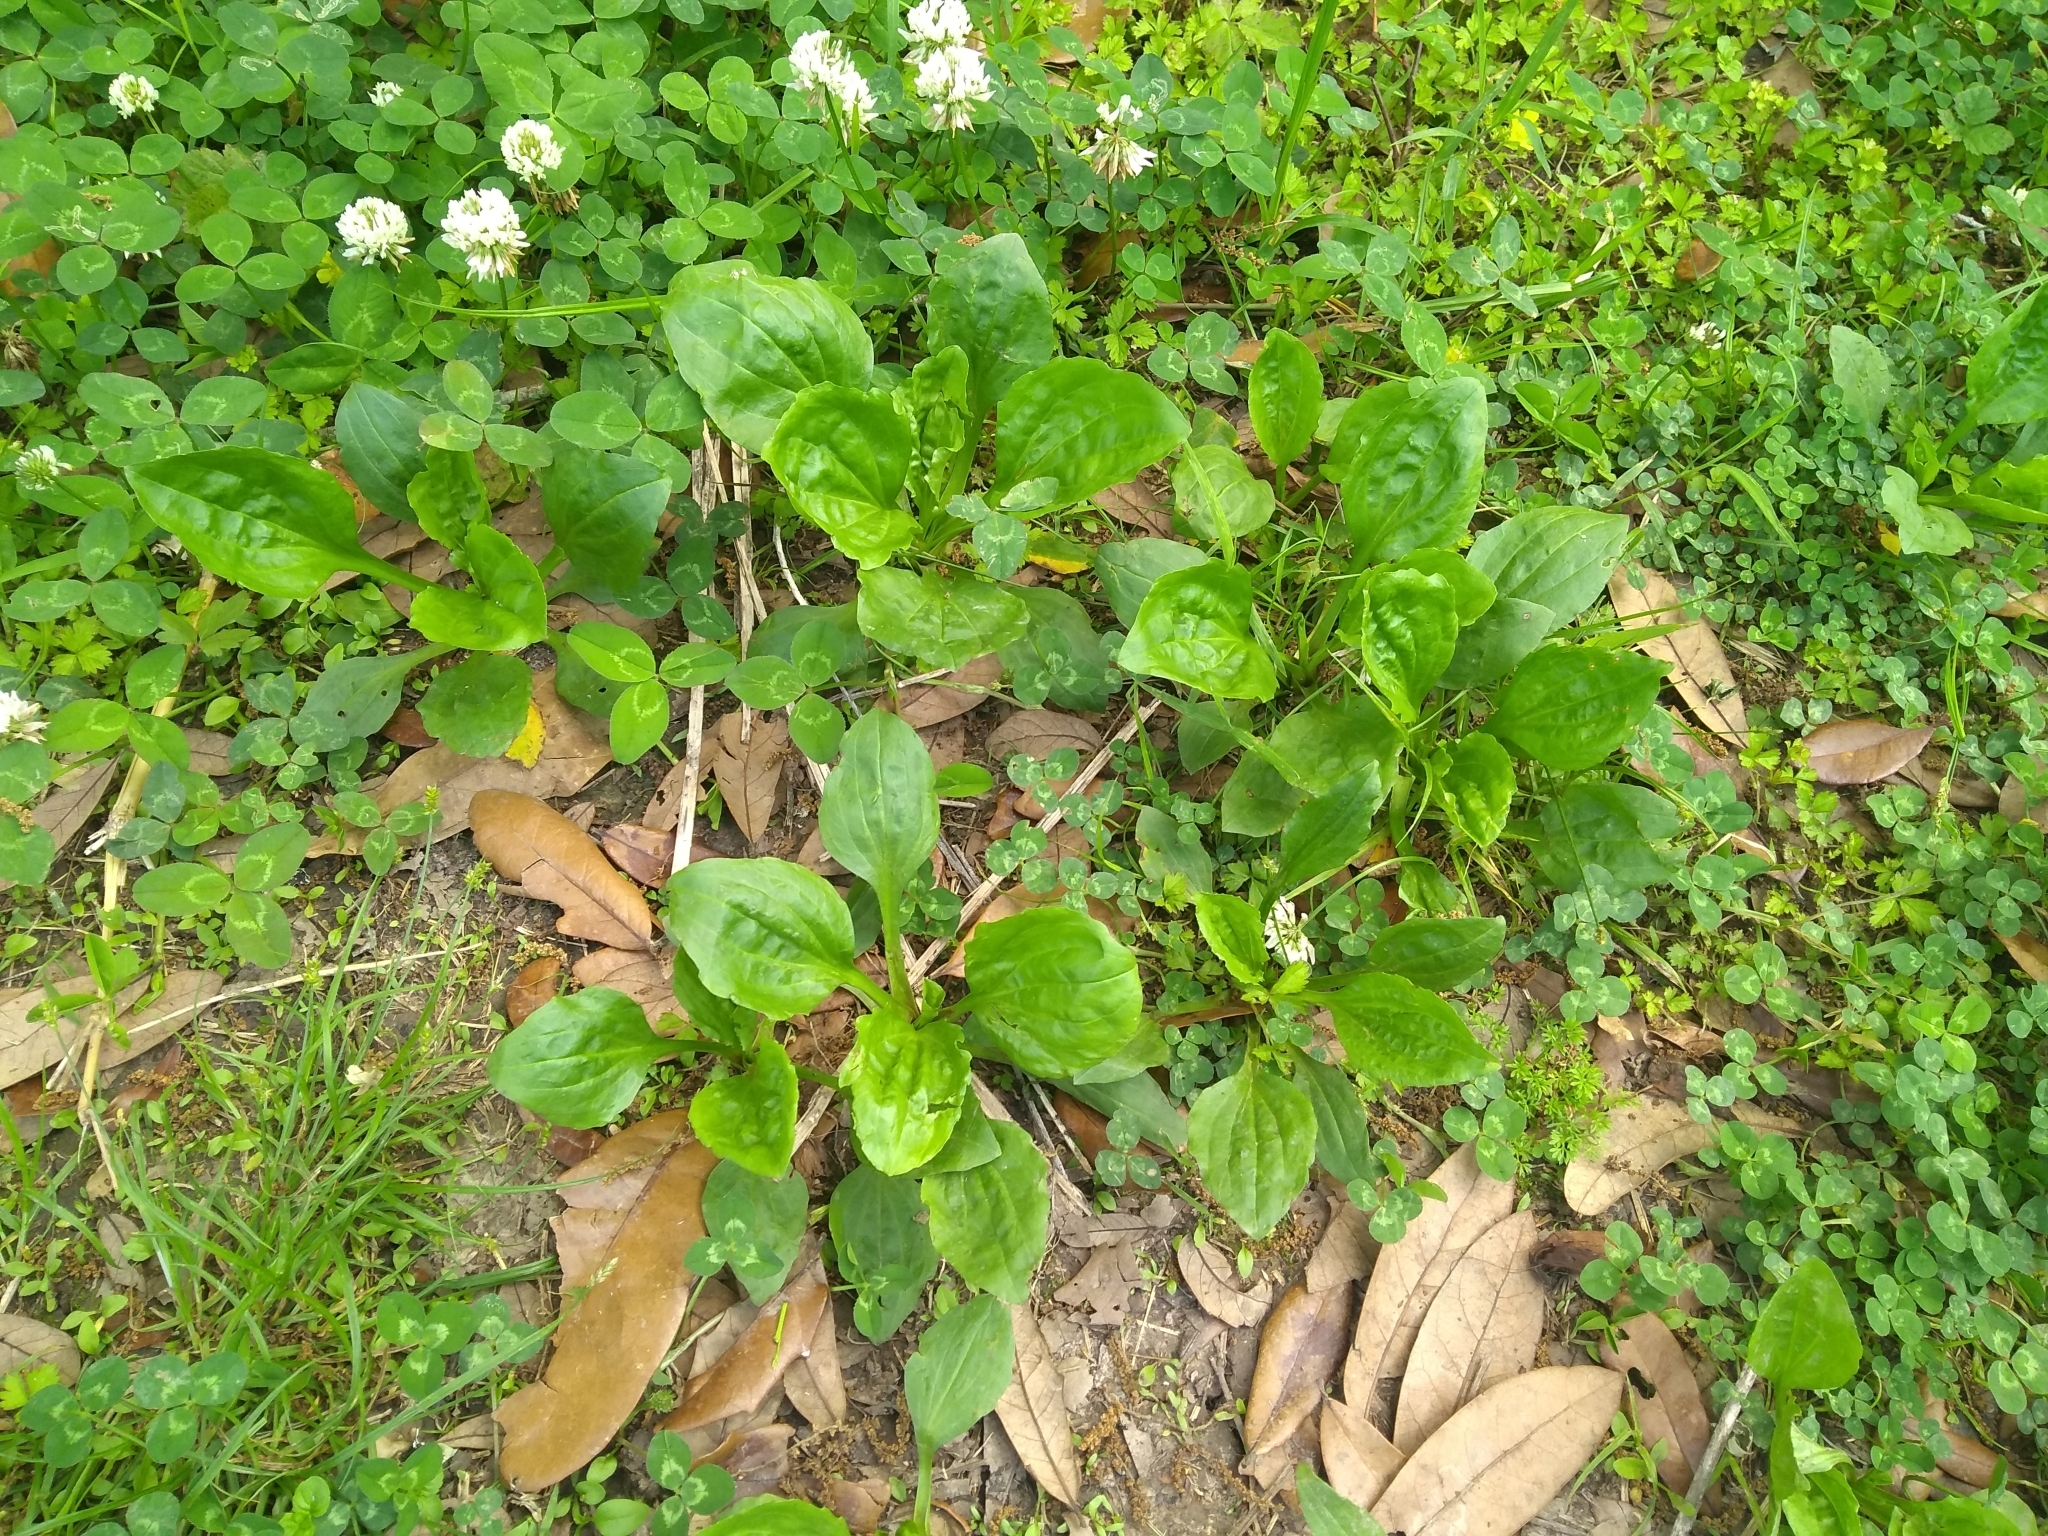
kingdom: Plantae
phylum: Tracheophyta
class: Magnoliopsida
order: Lamiales
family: Plantaginaceae
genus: Plantago
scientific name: Plantago major
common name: Common plantain
